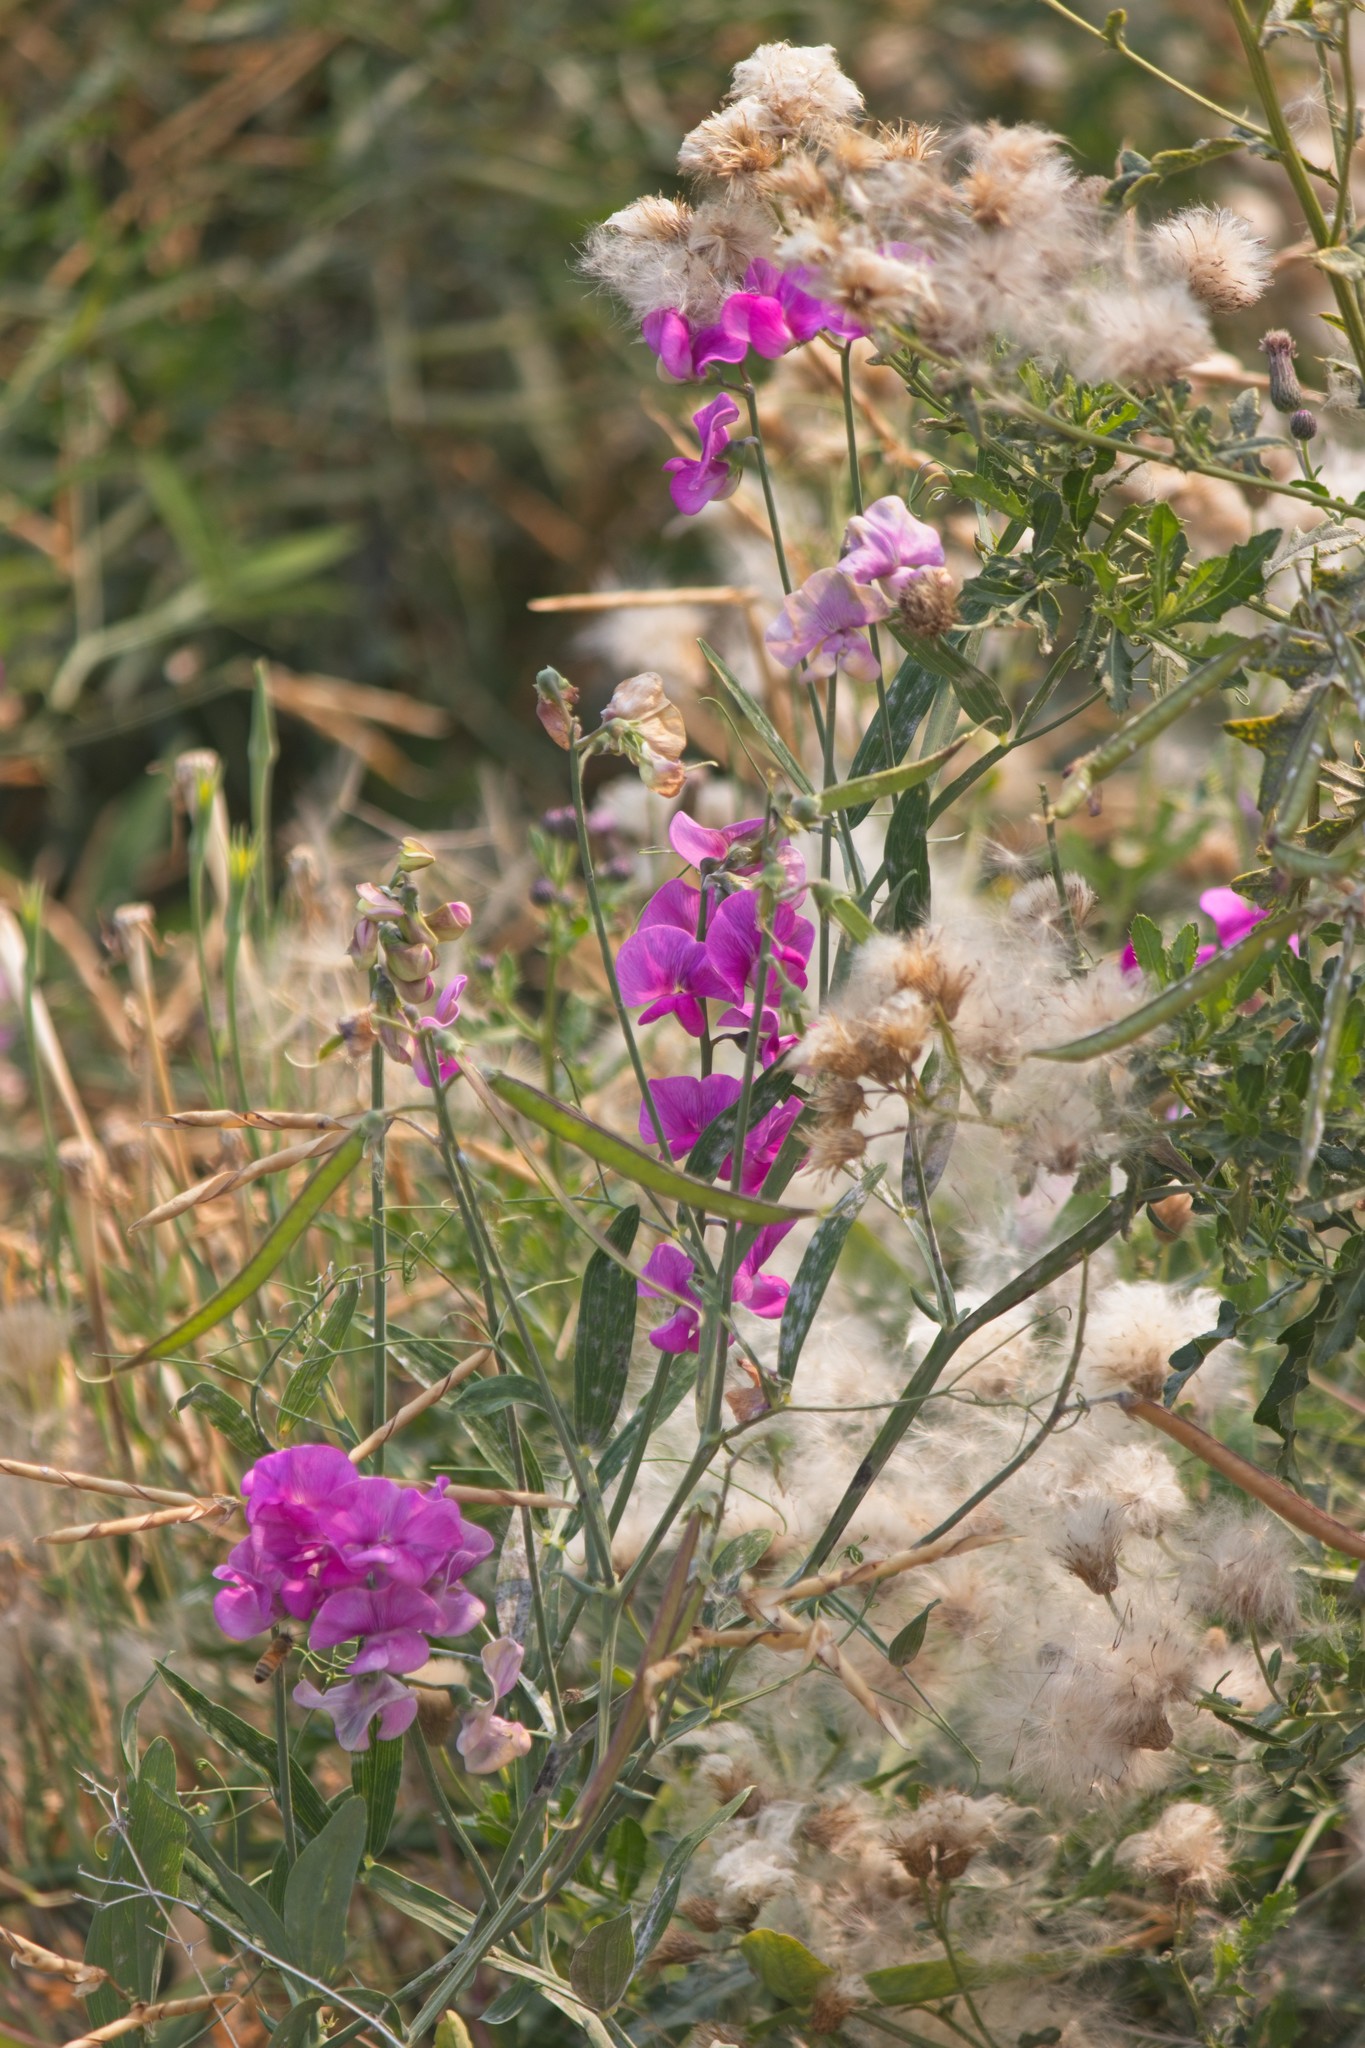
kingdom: Plantae
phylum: Tracheophyta
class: Magnoliopsida
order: Fabales
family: Fabaceae
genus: Lathyrus
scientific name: Lathyrus latifolius
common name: Perennial pea
